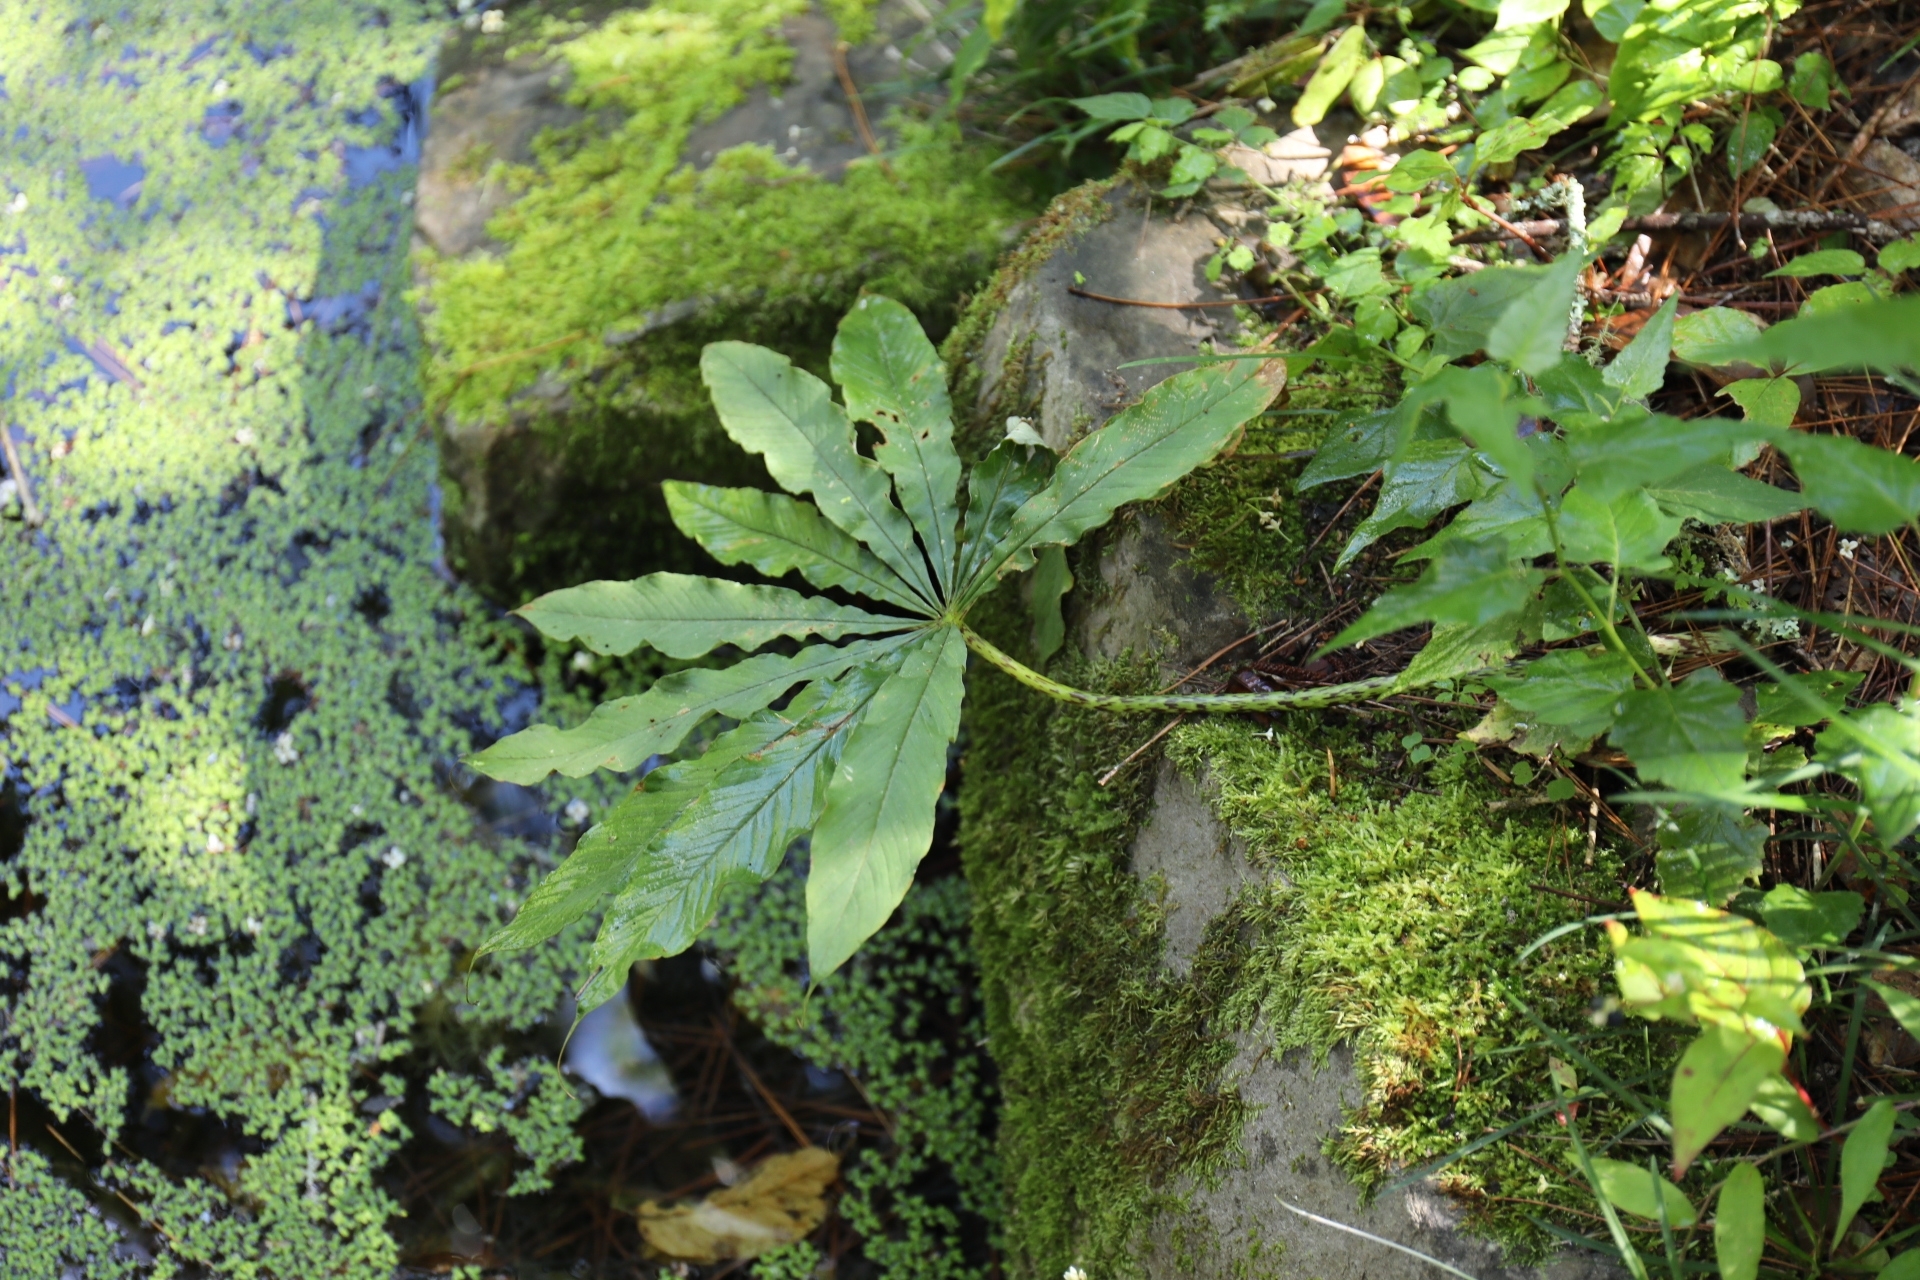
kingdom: Plantae
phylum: Tracheophyta
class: Liliopsida
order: Alismatales
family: Araceae
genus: Arisaema
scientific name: Arisaema taiwanense
